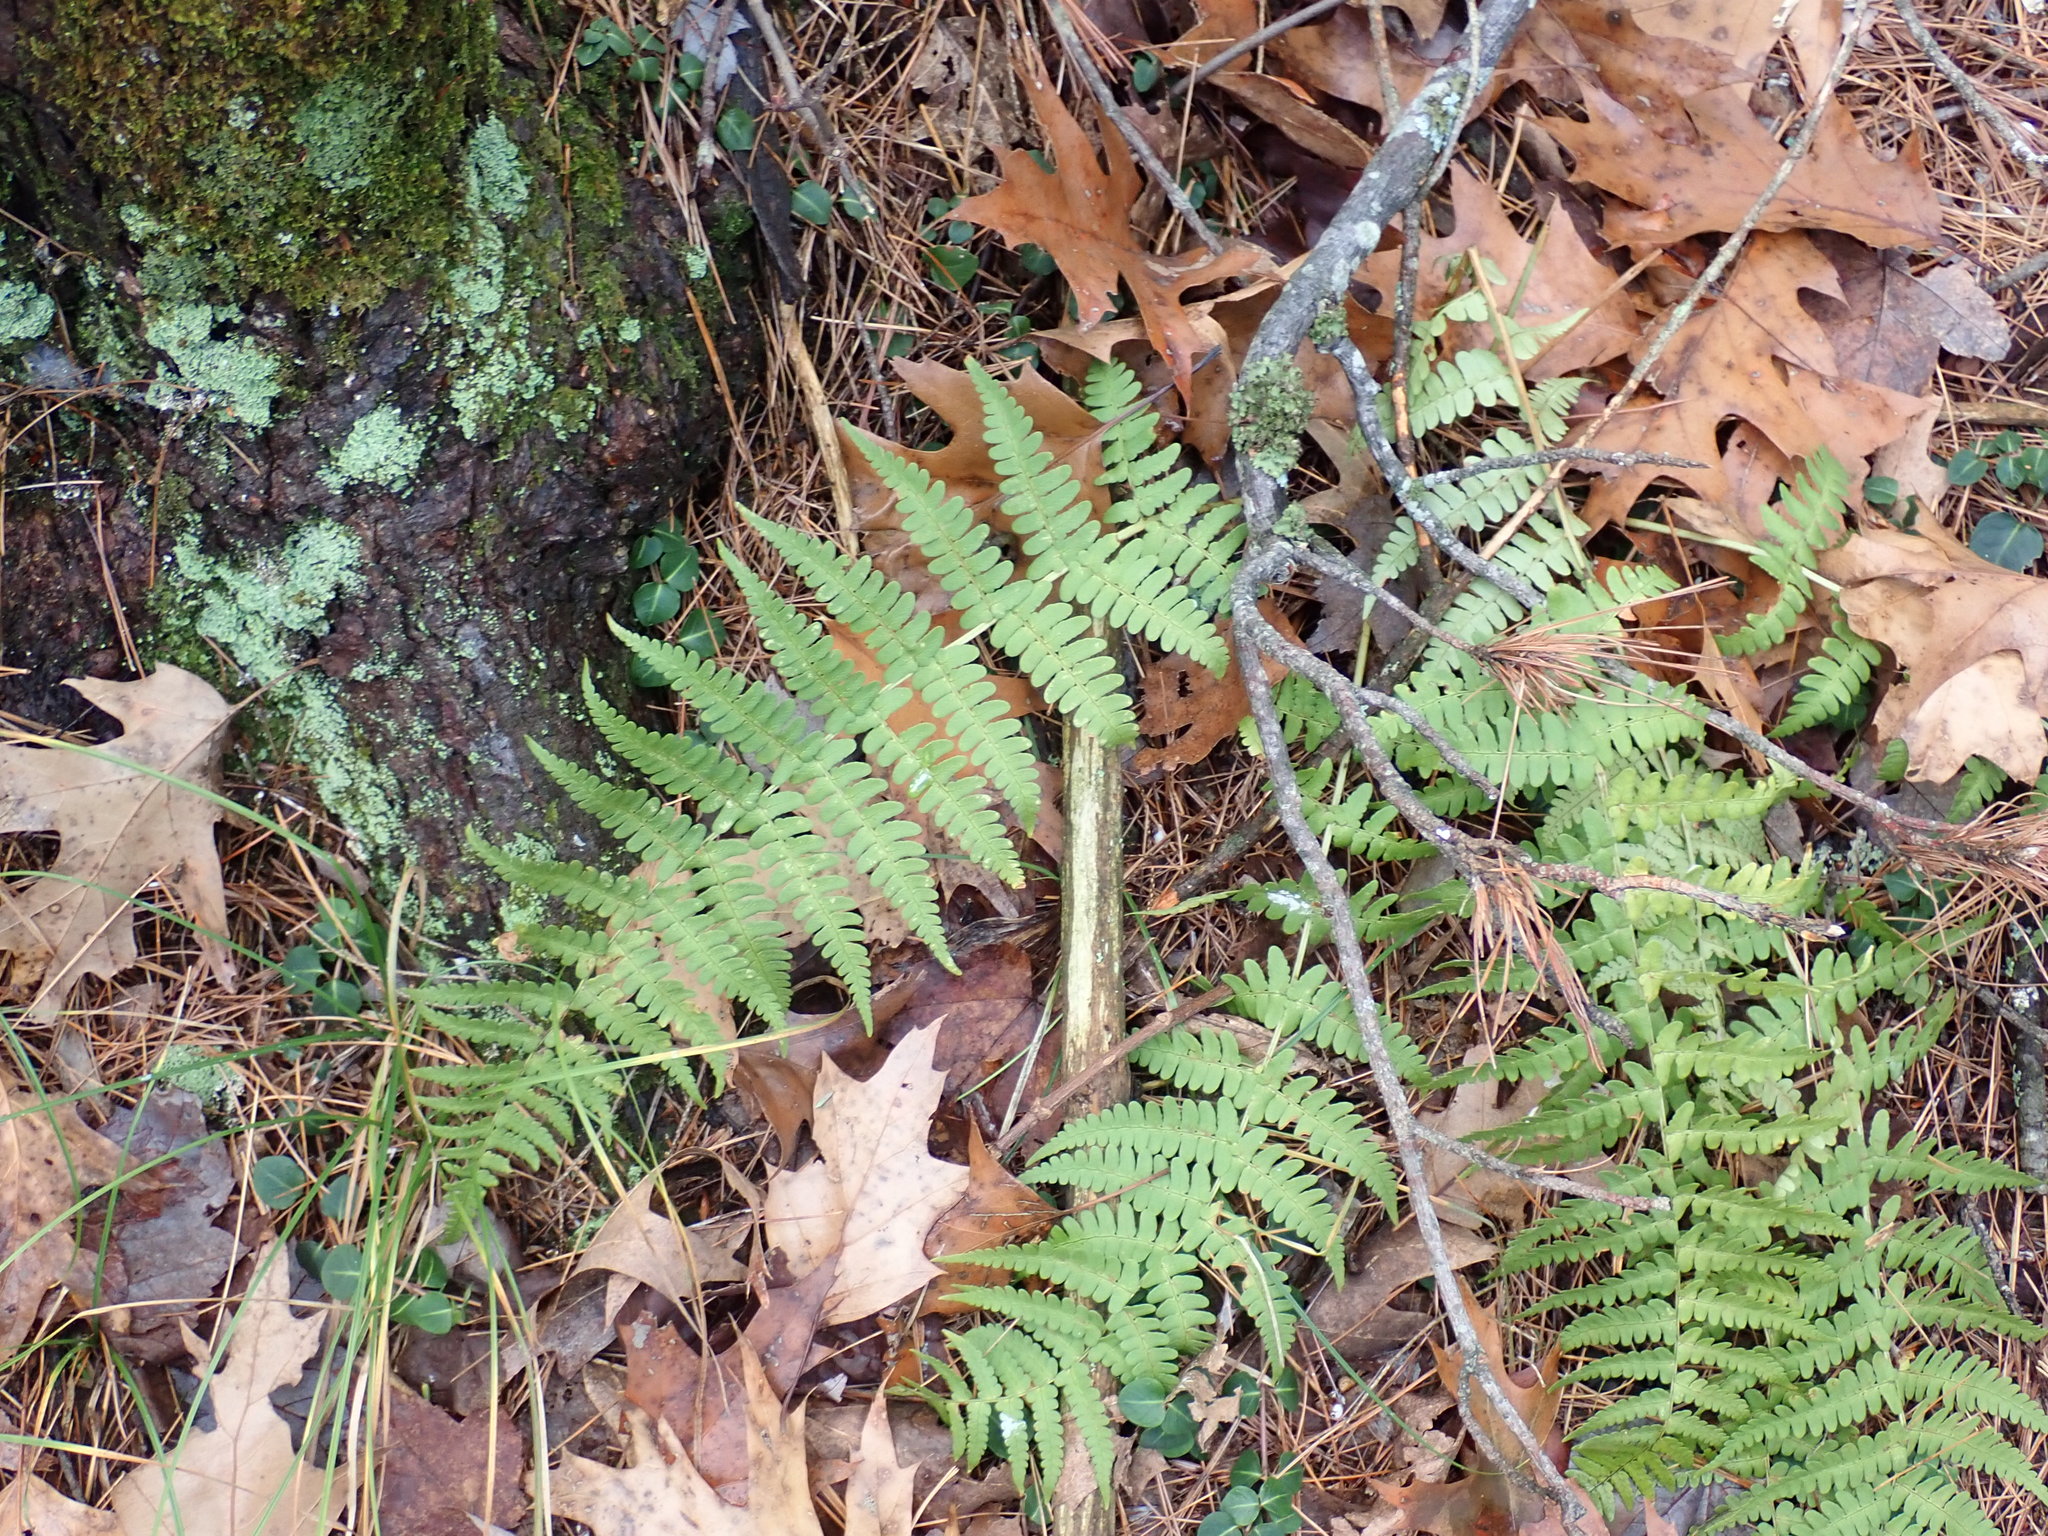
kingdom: Plantae
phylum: Tracheophyta
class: Polypodiopsida
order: Polypodiales
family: Dryopteridaceae
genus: Dryopteris
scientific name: Dryopteris marginalis
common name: Marginal wood fern
